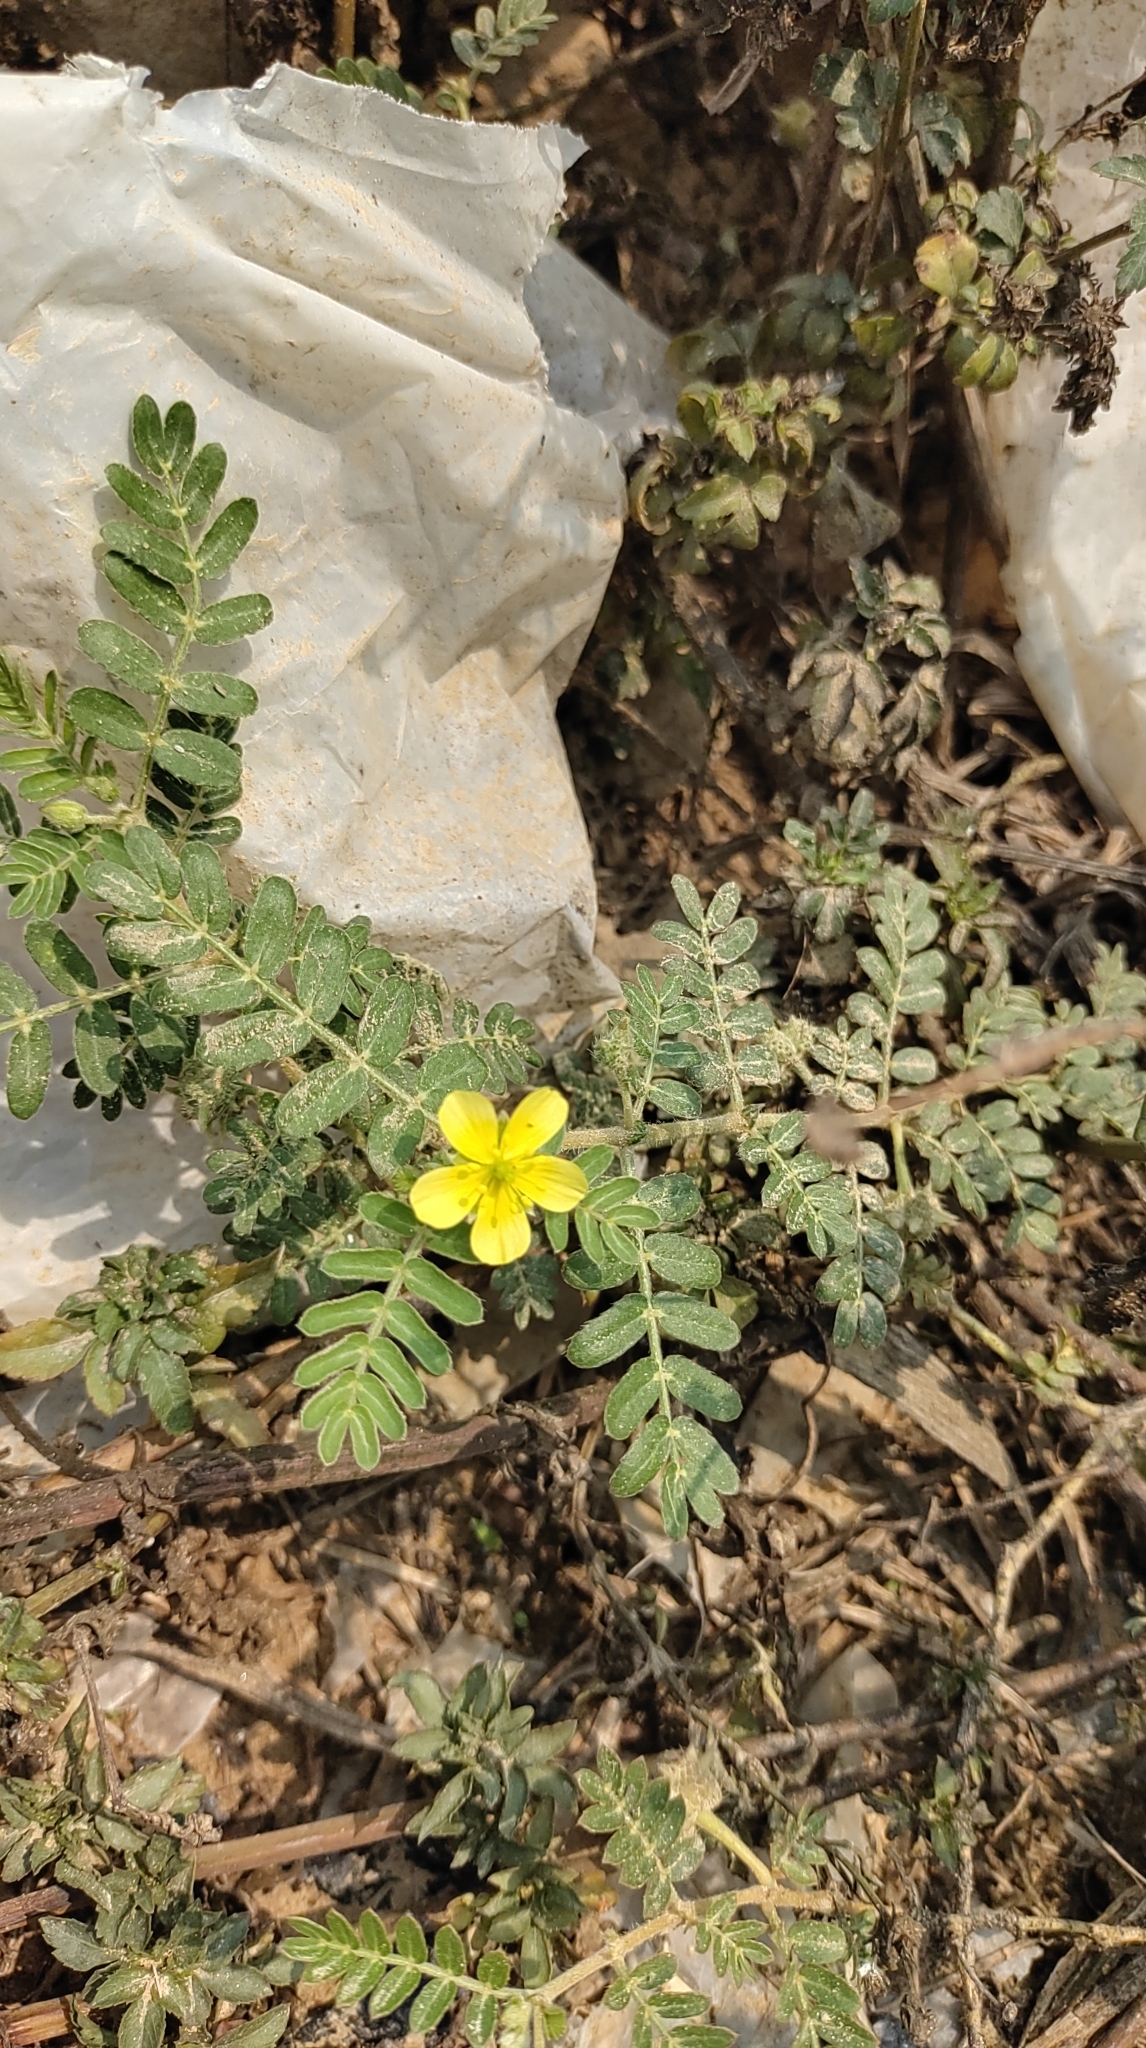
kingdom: Plantae
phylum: Tracheophyta
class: Magnoliopsida
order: Zygophyllales
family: Zygophyllaceae
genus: Tribulus
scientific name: Tribulus cistoides
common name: Jamaican feverplant
